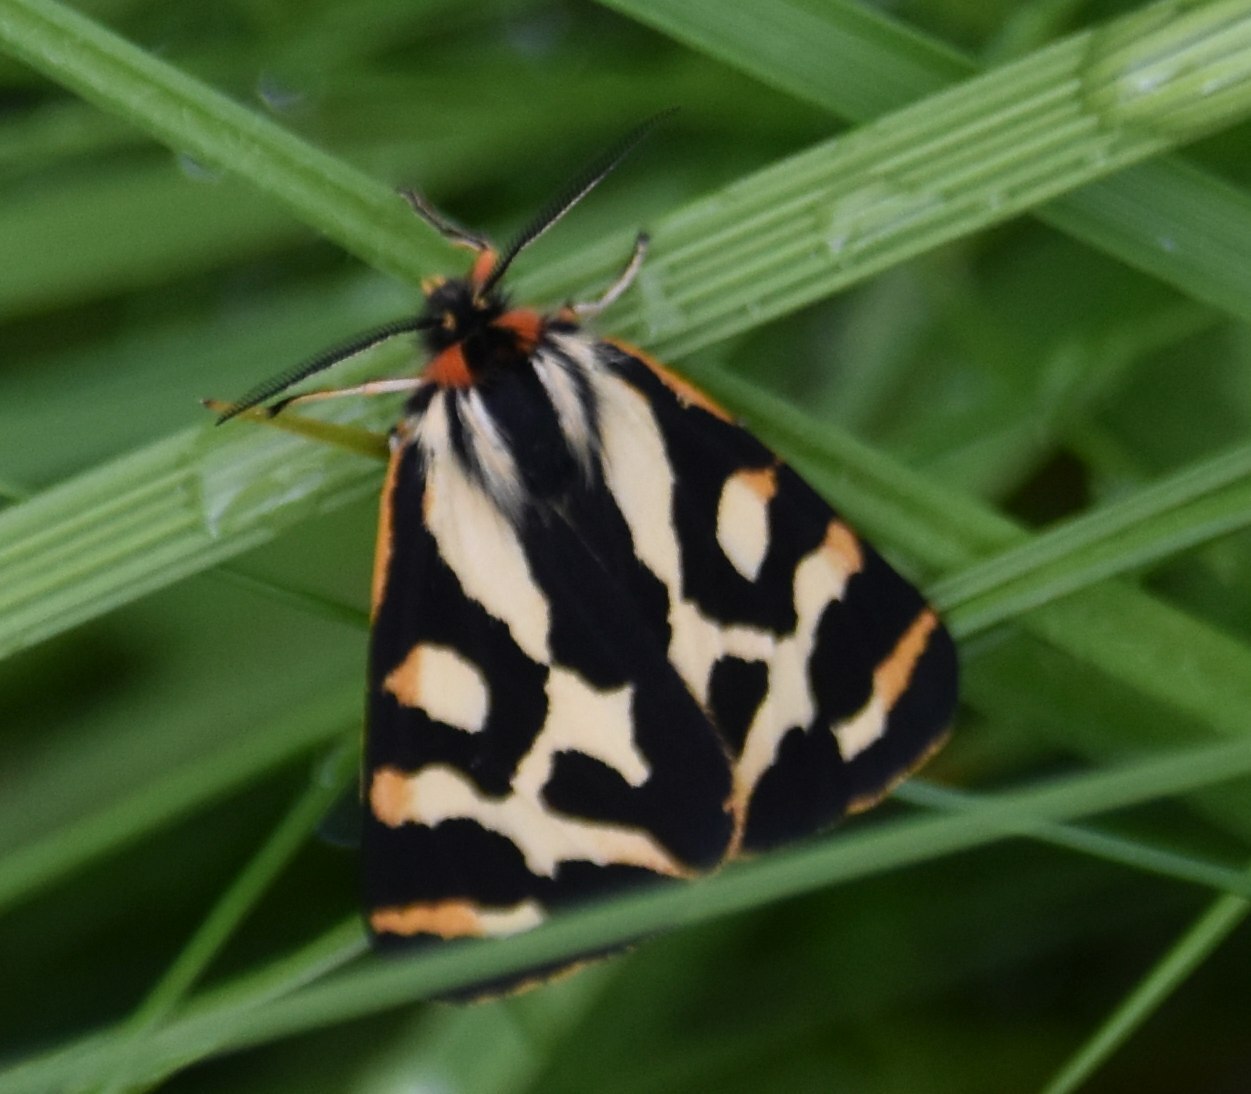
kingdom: Animalia
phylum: Arthropoda
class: Insecta
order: Lepidoptera
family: Erebidae
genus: Parasemia
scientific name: Parasemia plantaginis
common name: Wood tiger
